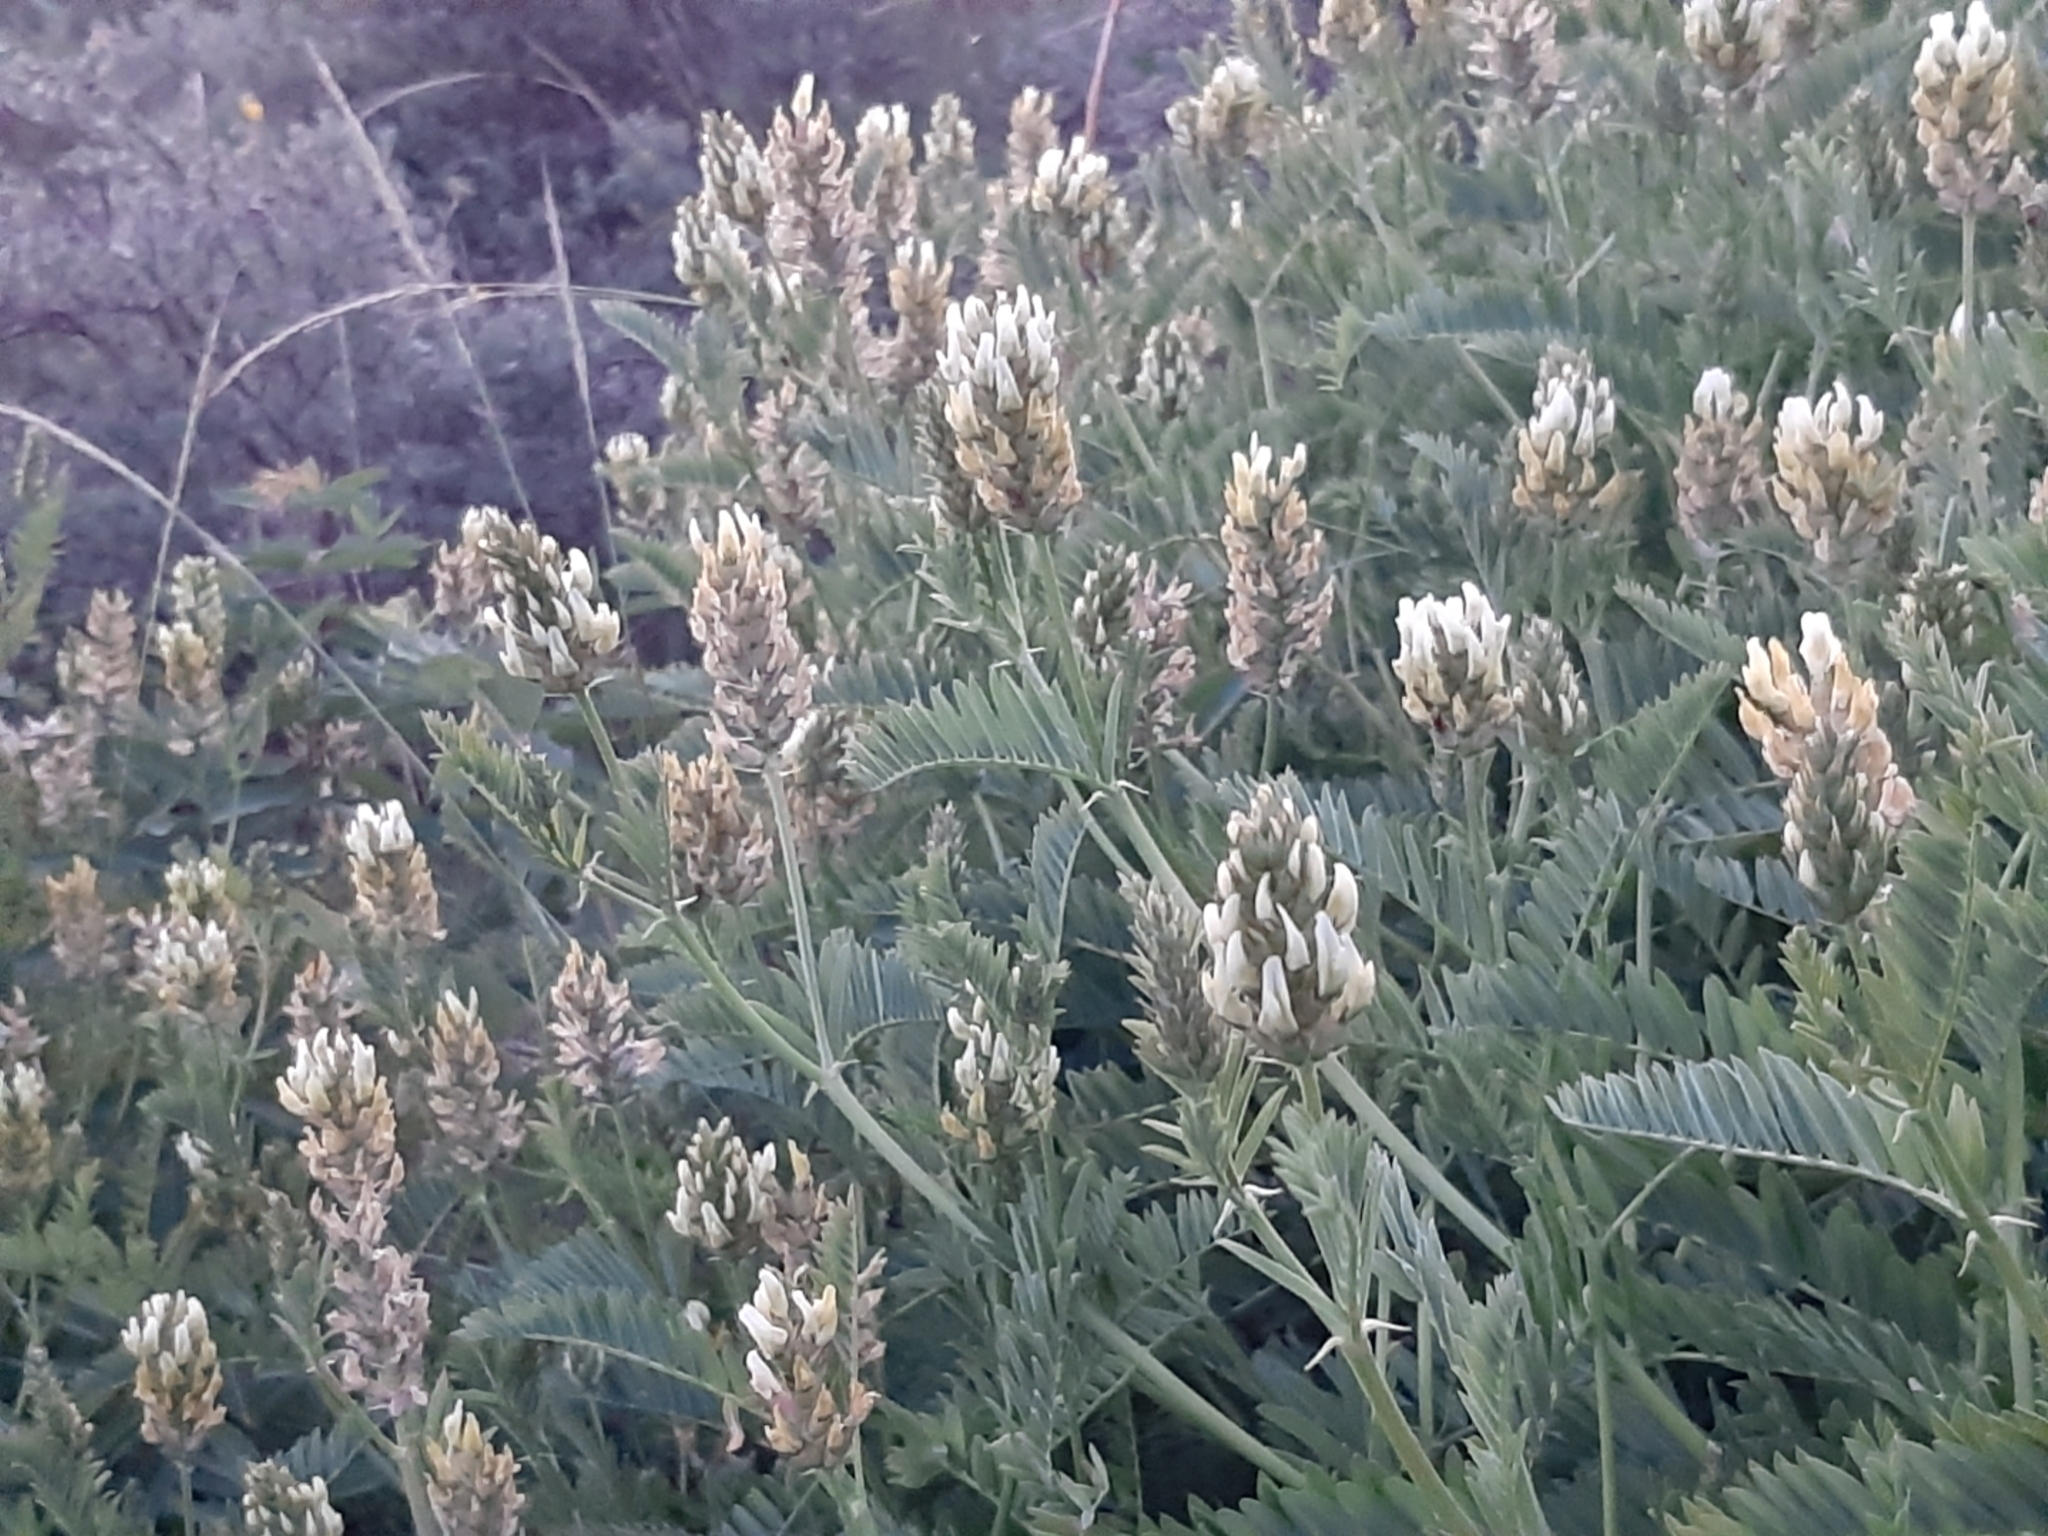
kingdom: Plantae
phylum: Tracheophyta
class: Magnoliopsida
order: Fabales
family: Fabaceae
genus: Astragalus
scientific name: Astragalus cicer
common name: Chick-pea milk-vetch
